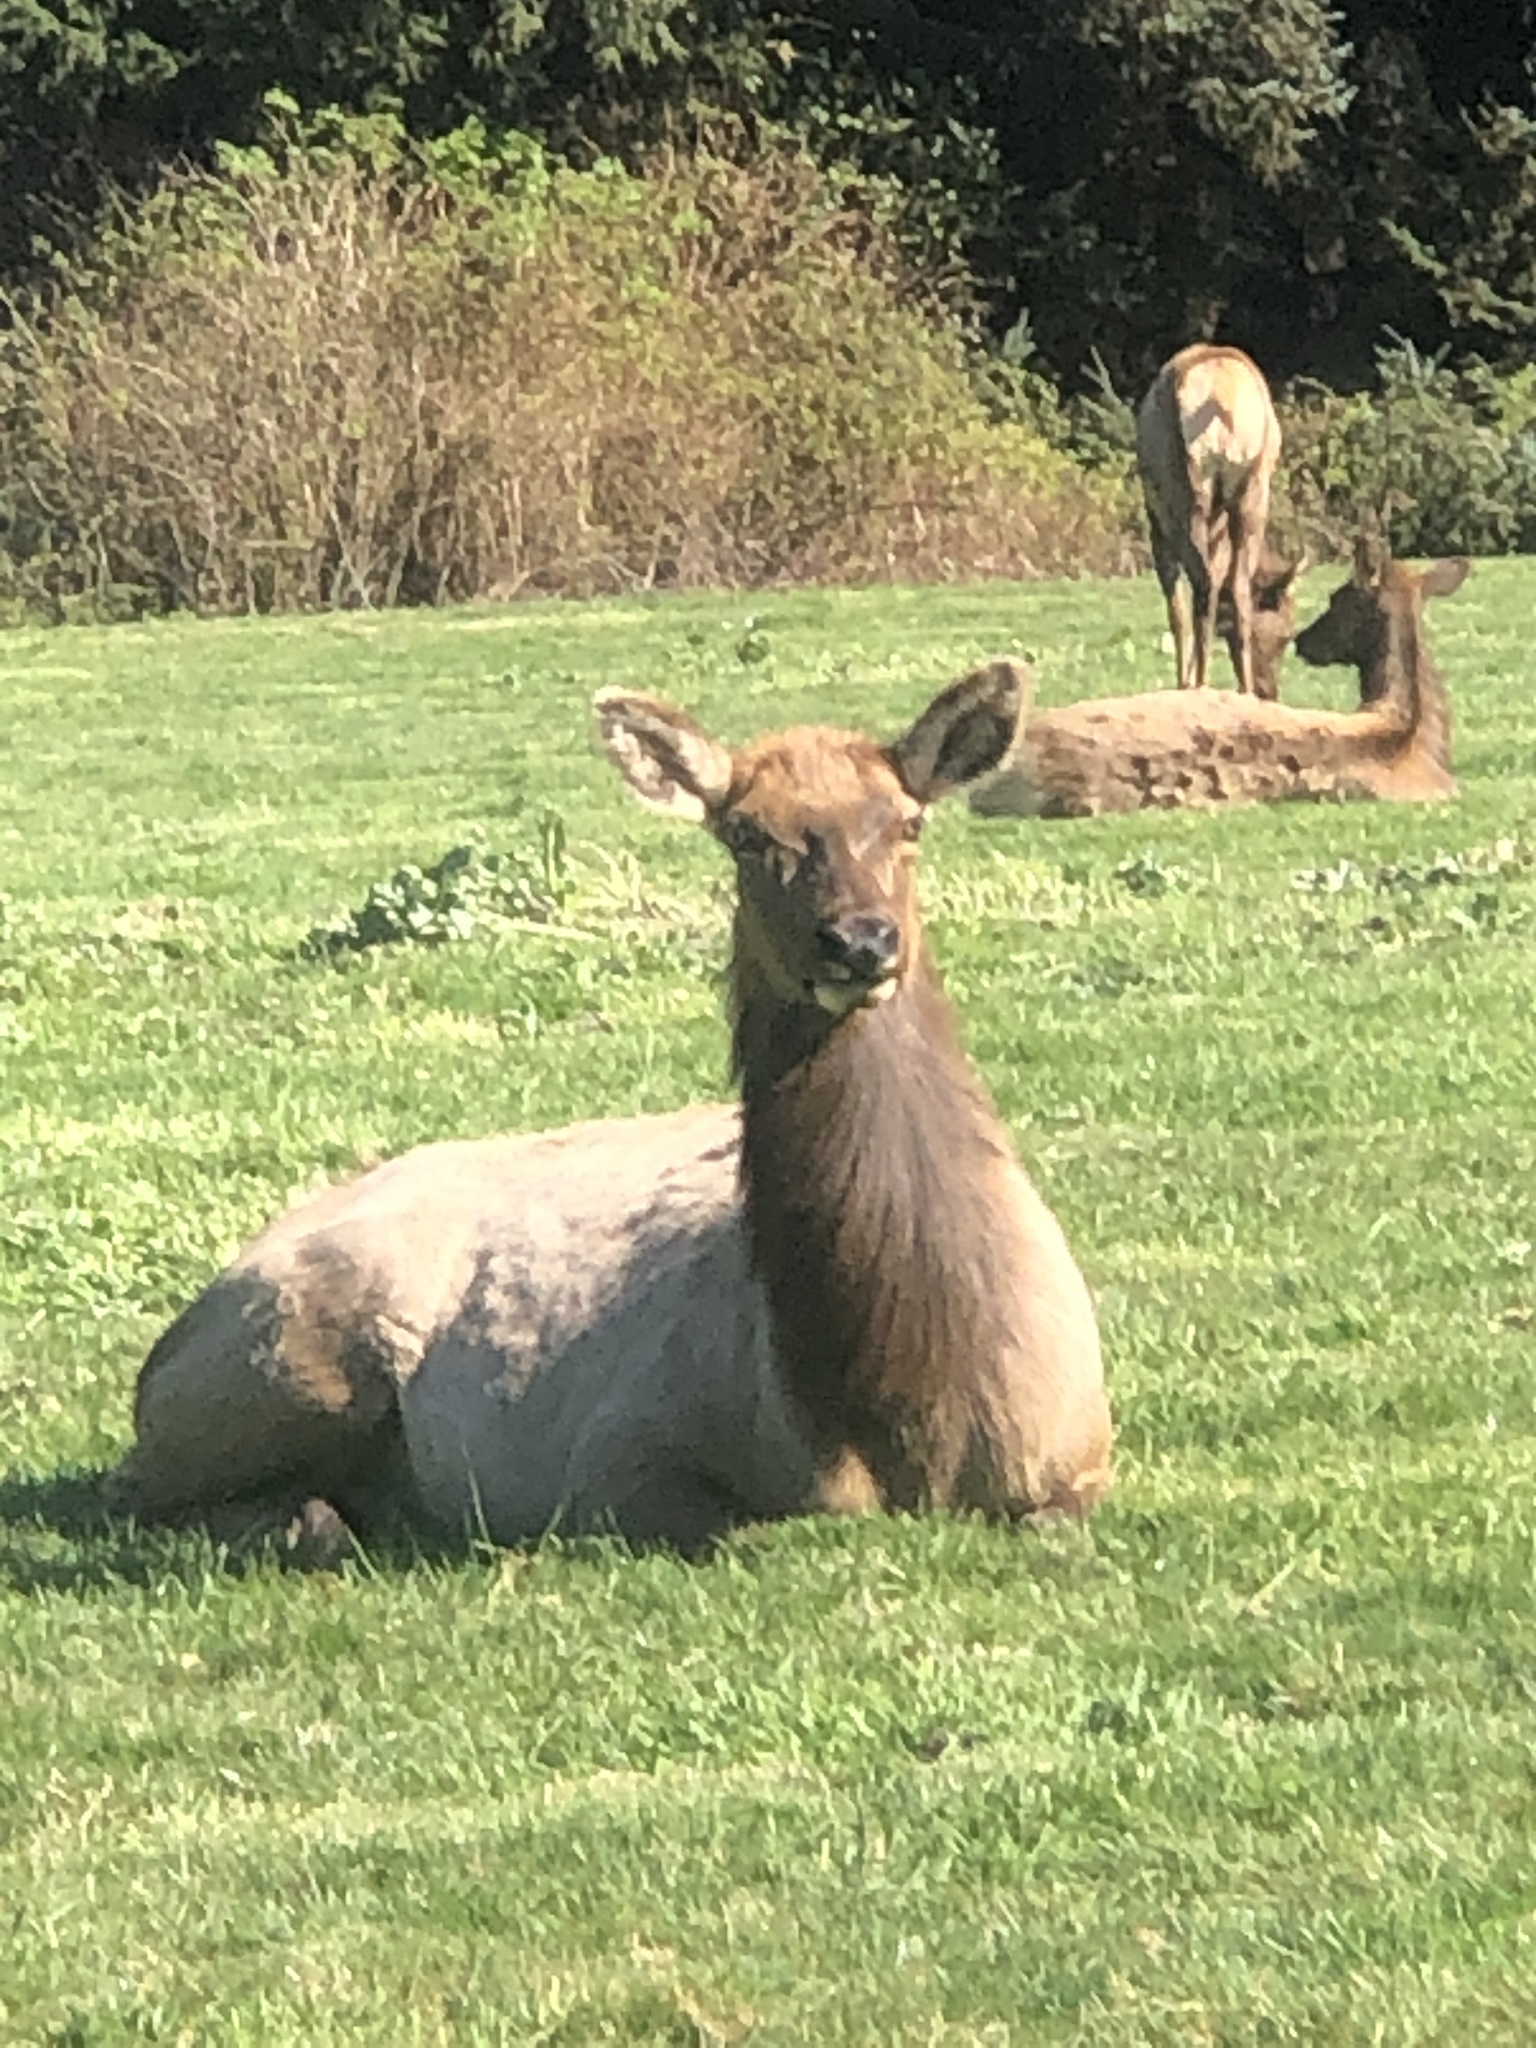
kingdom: Animalia
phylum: Chordata
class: Mammalia
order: Artiodactyla
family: Cervidae
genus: Cervus
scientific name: Cervus elaphus
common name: Red deer
